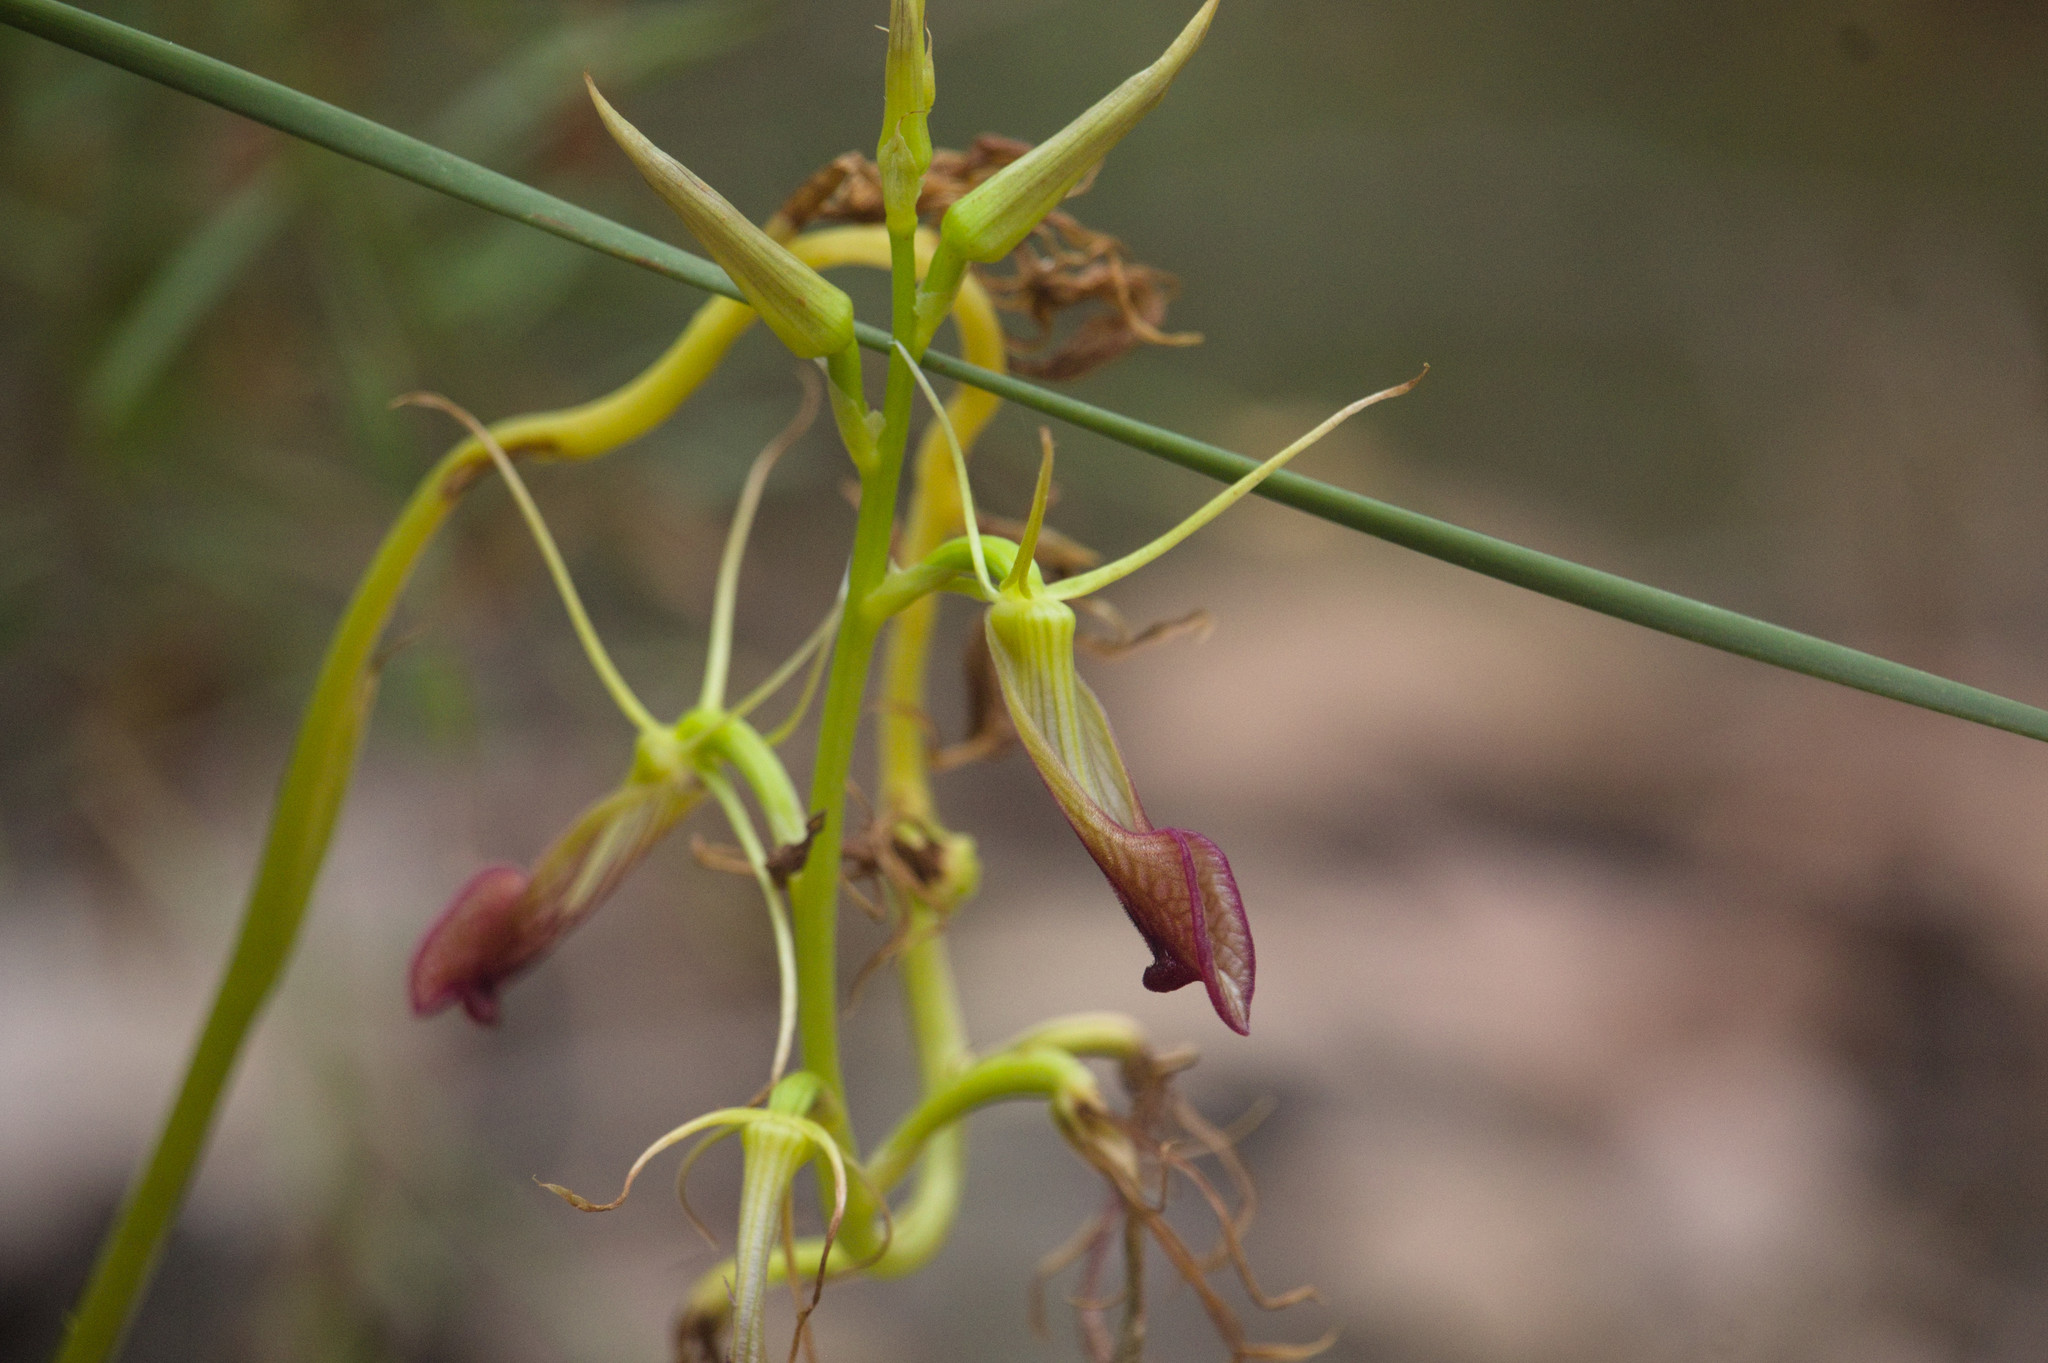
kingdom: Plantae
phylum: Tracheophyta
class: Liliopsida
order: Asparagales
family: Orchidaceae
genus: Cryptostylis
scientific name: Cryptostylis ovata
